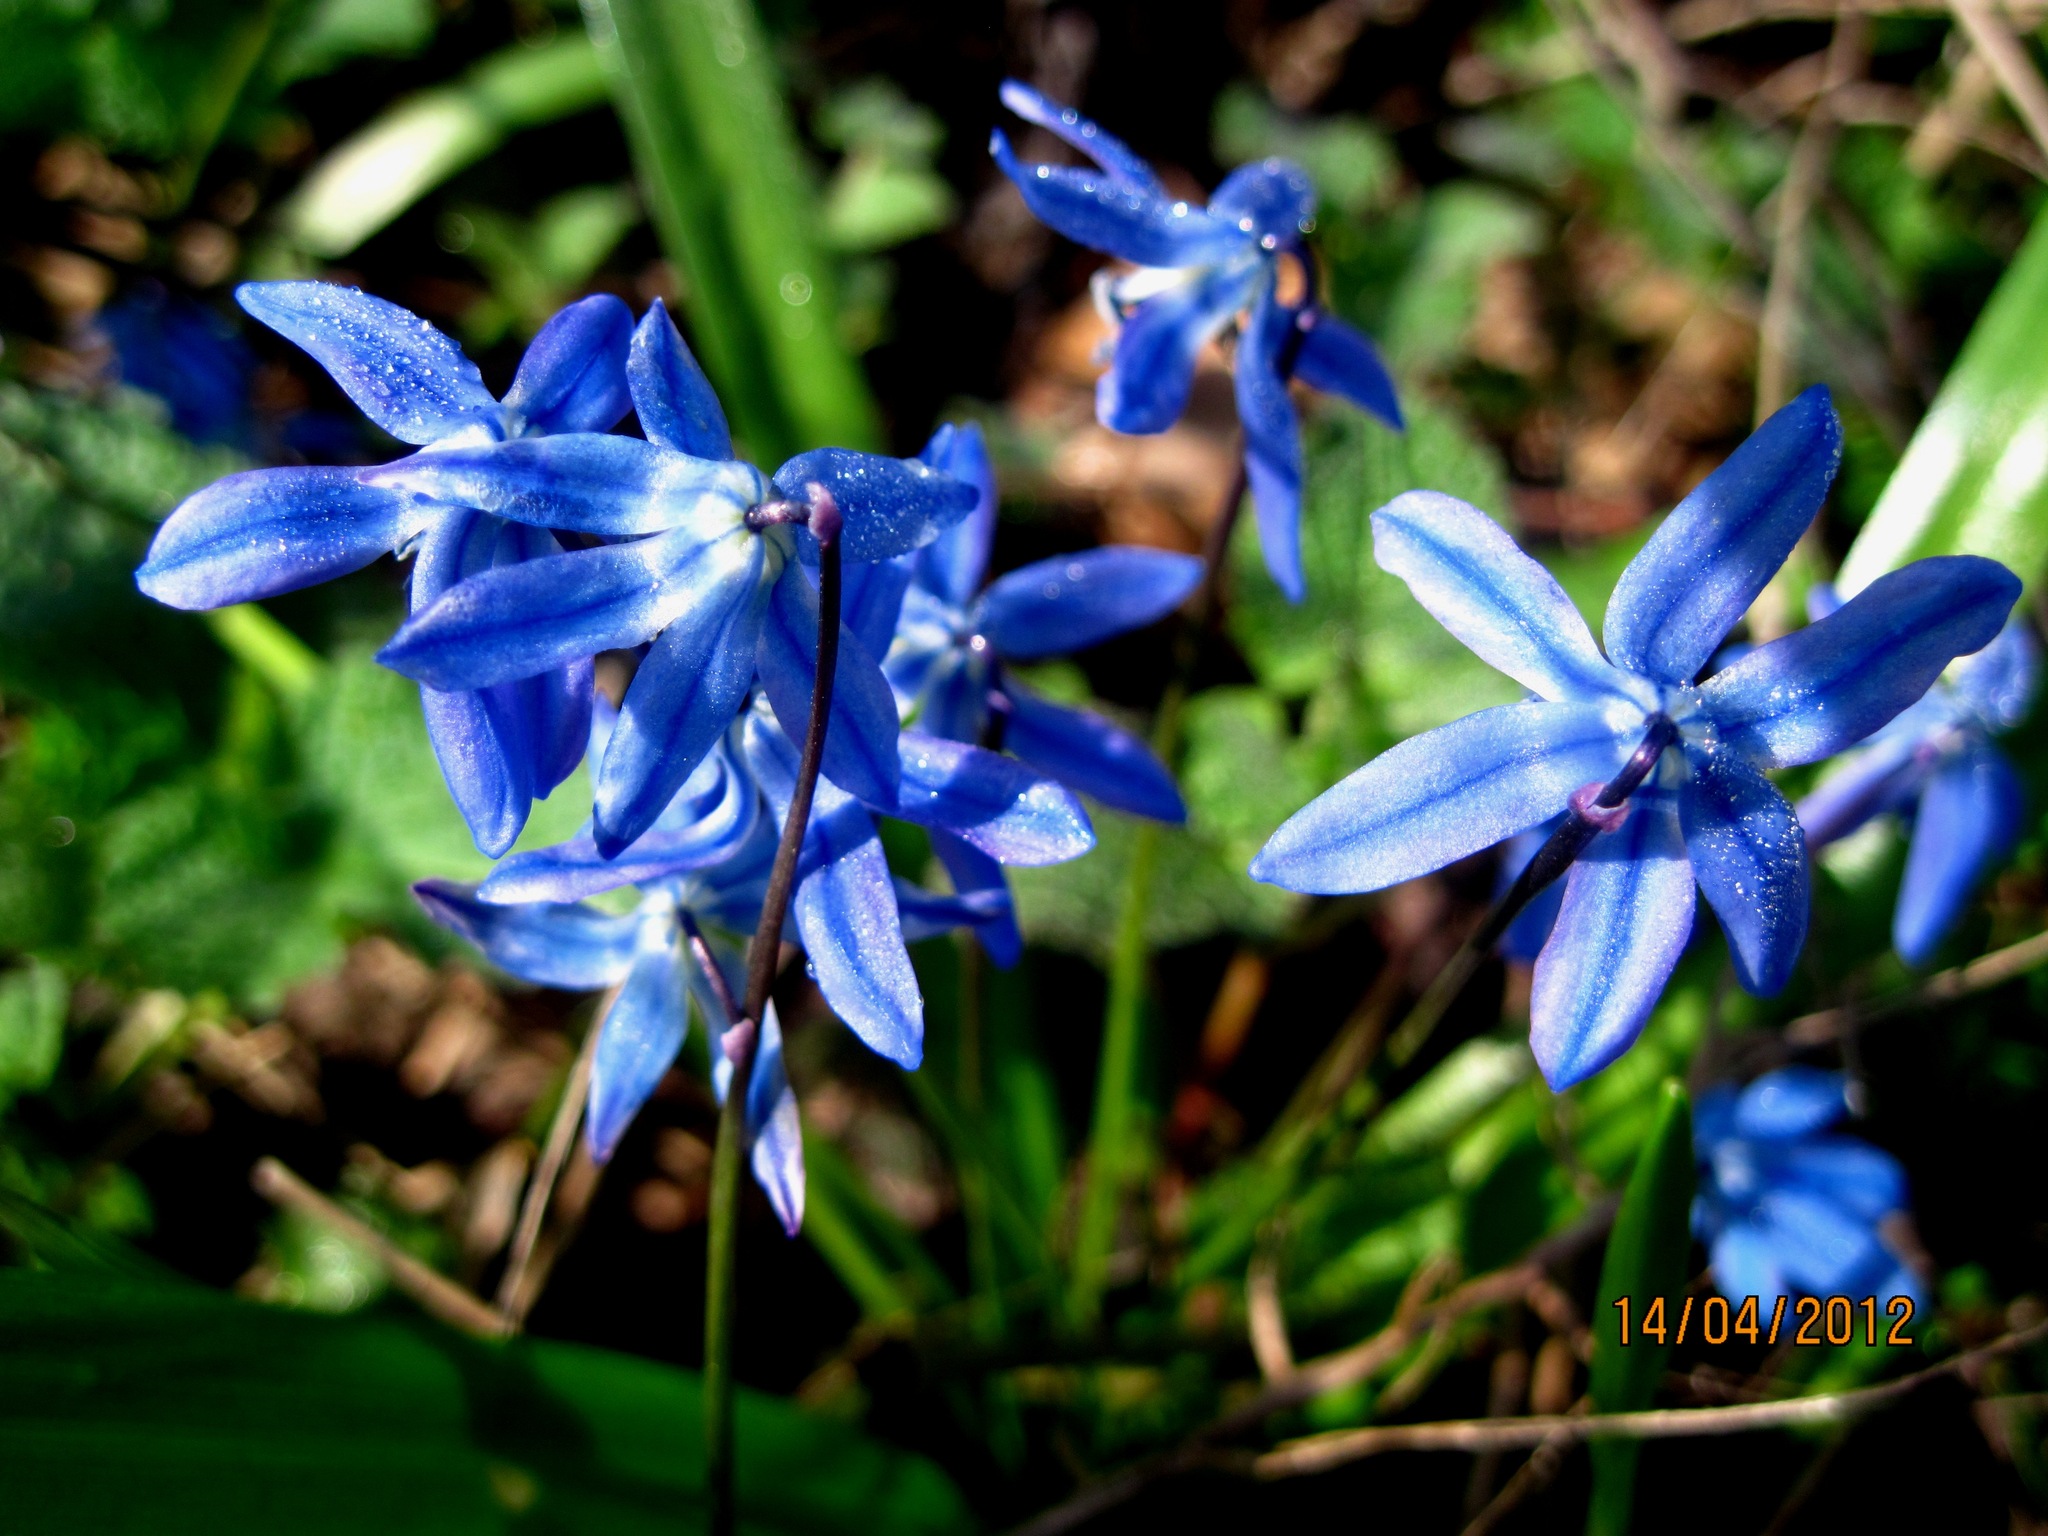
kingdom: Plantae
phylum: Tracheophyta
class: Liliopsida
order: Asparagales
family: Asparagaceae
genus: Scilla
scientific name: Scilla siberica
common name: Siberian squill
